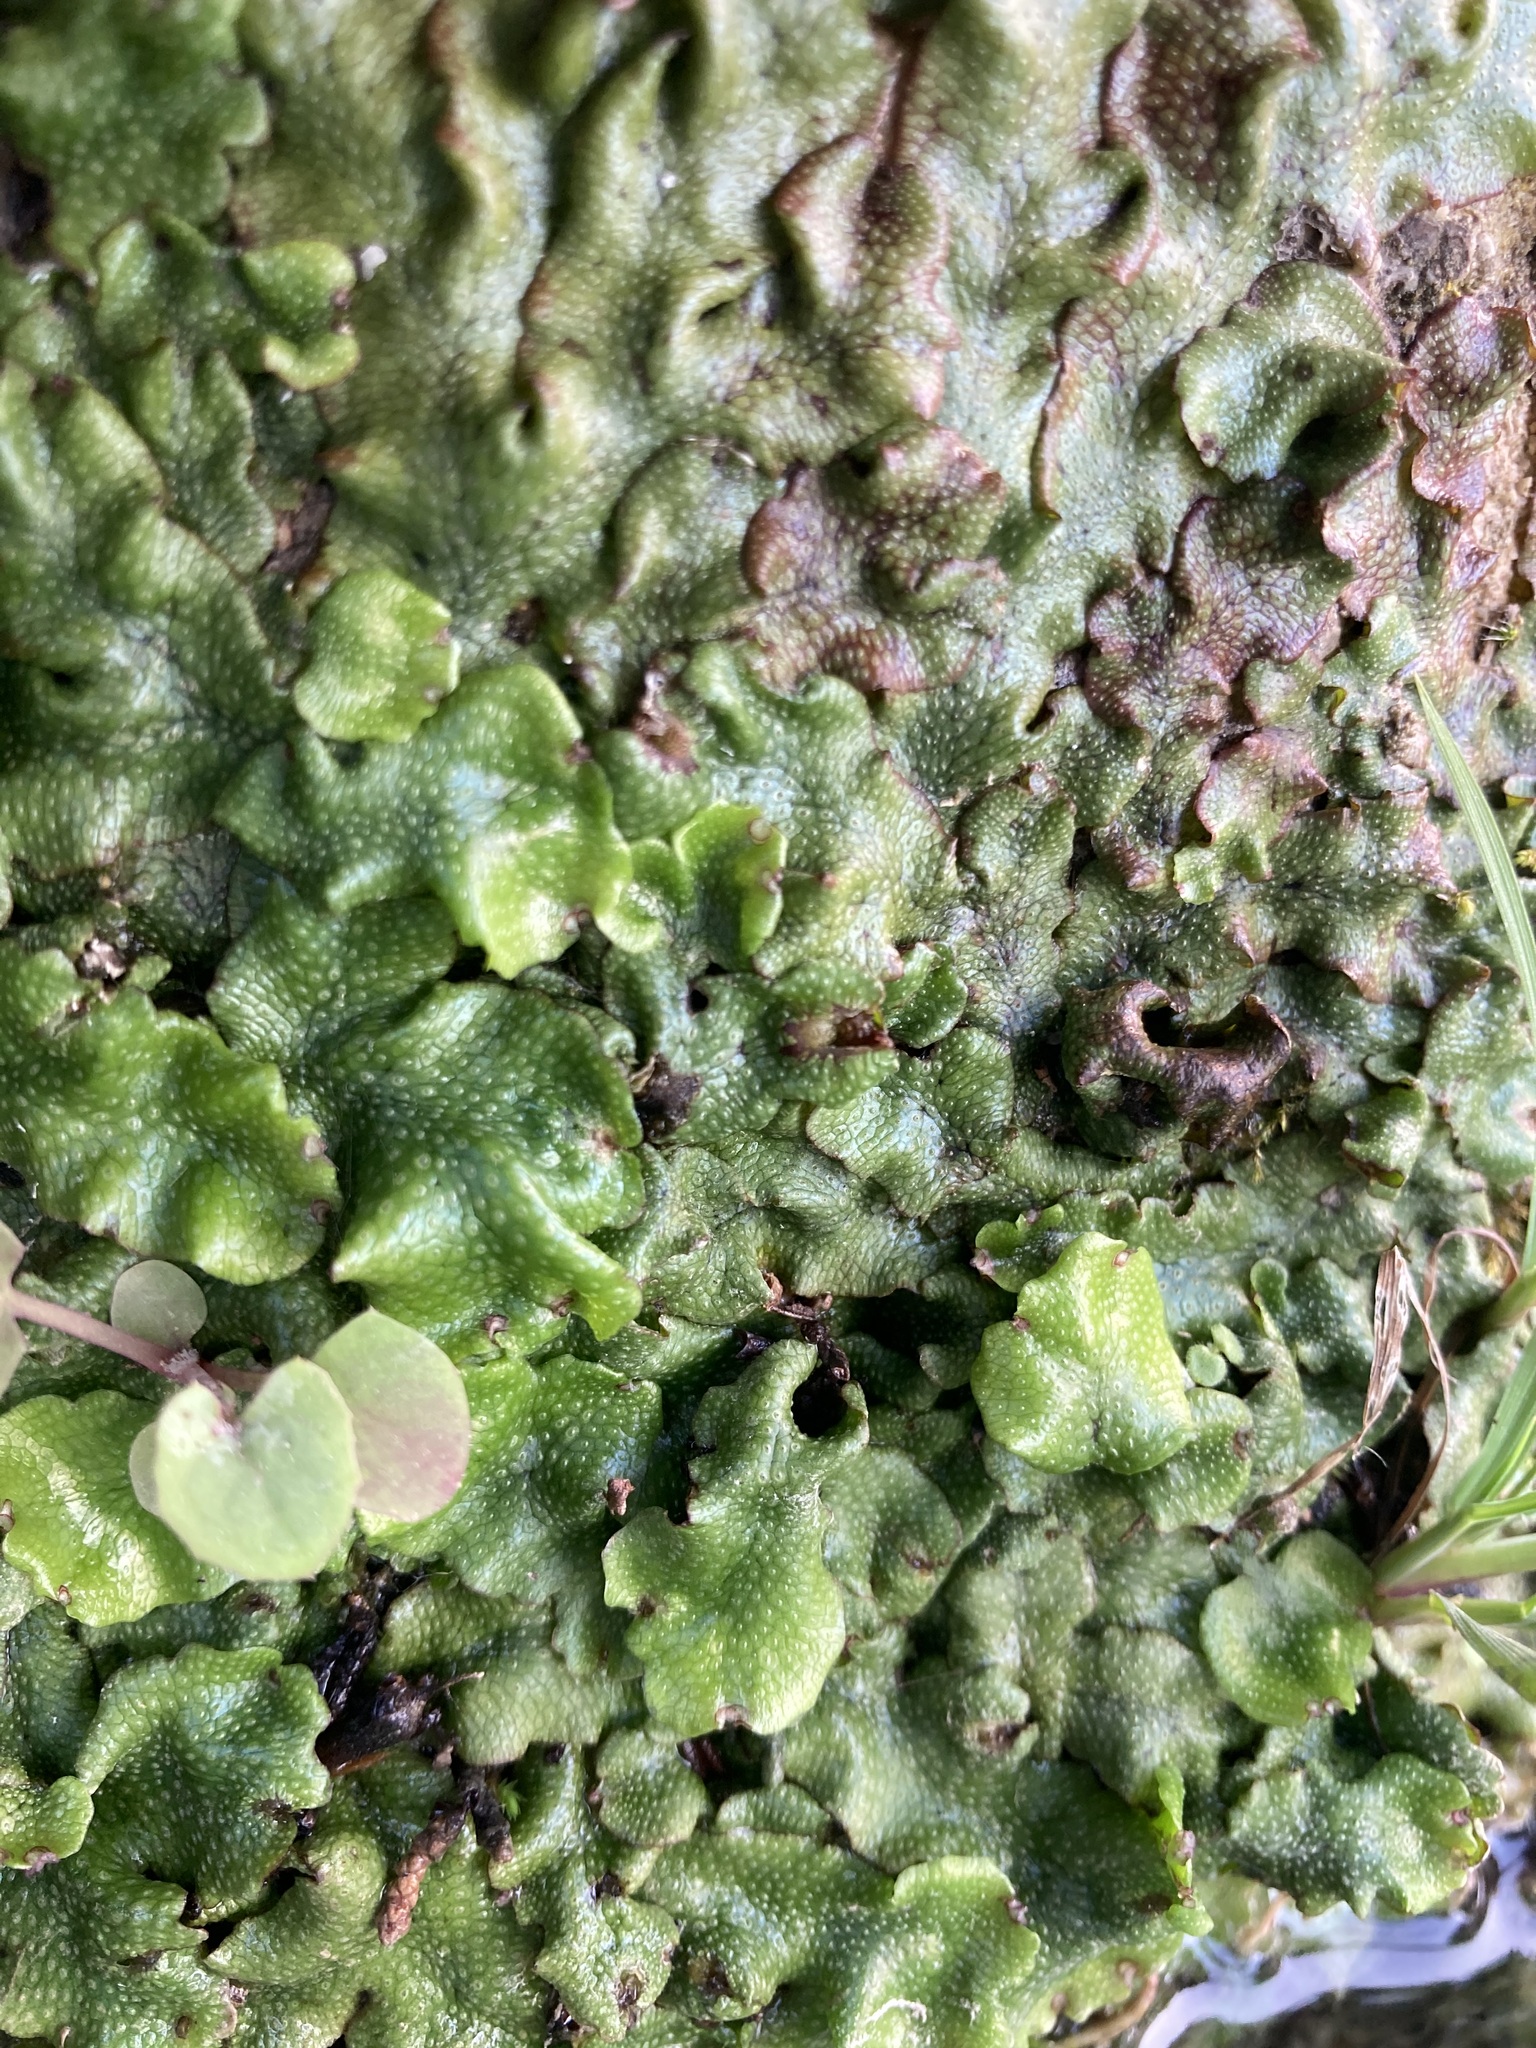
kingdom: Plantae
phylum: Marchantiophyta
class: Marchantiopsida
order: Marchantiales
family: Conocephalaceae
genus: Conocephalum
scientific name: Conocephalum conicum
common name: Great scented liverwort
